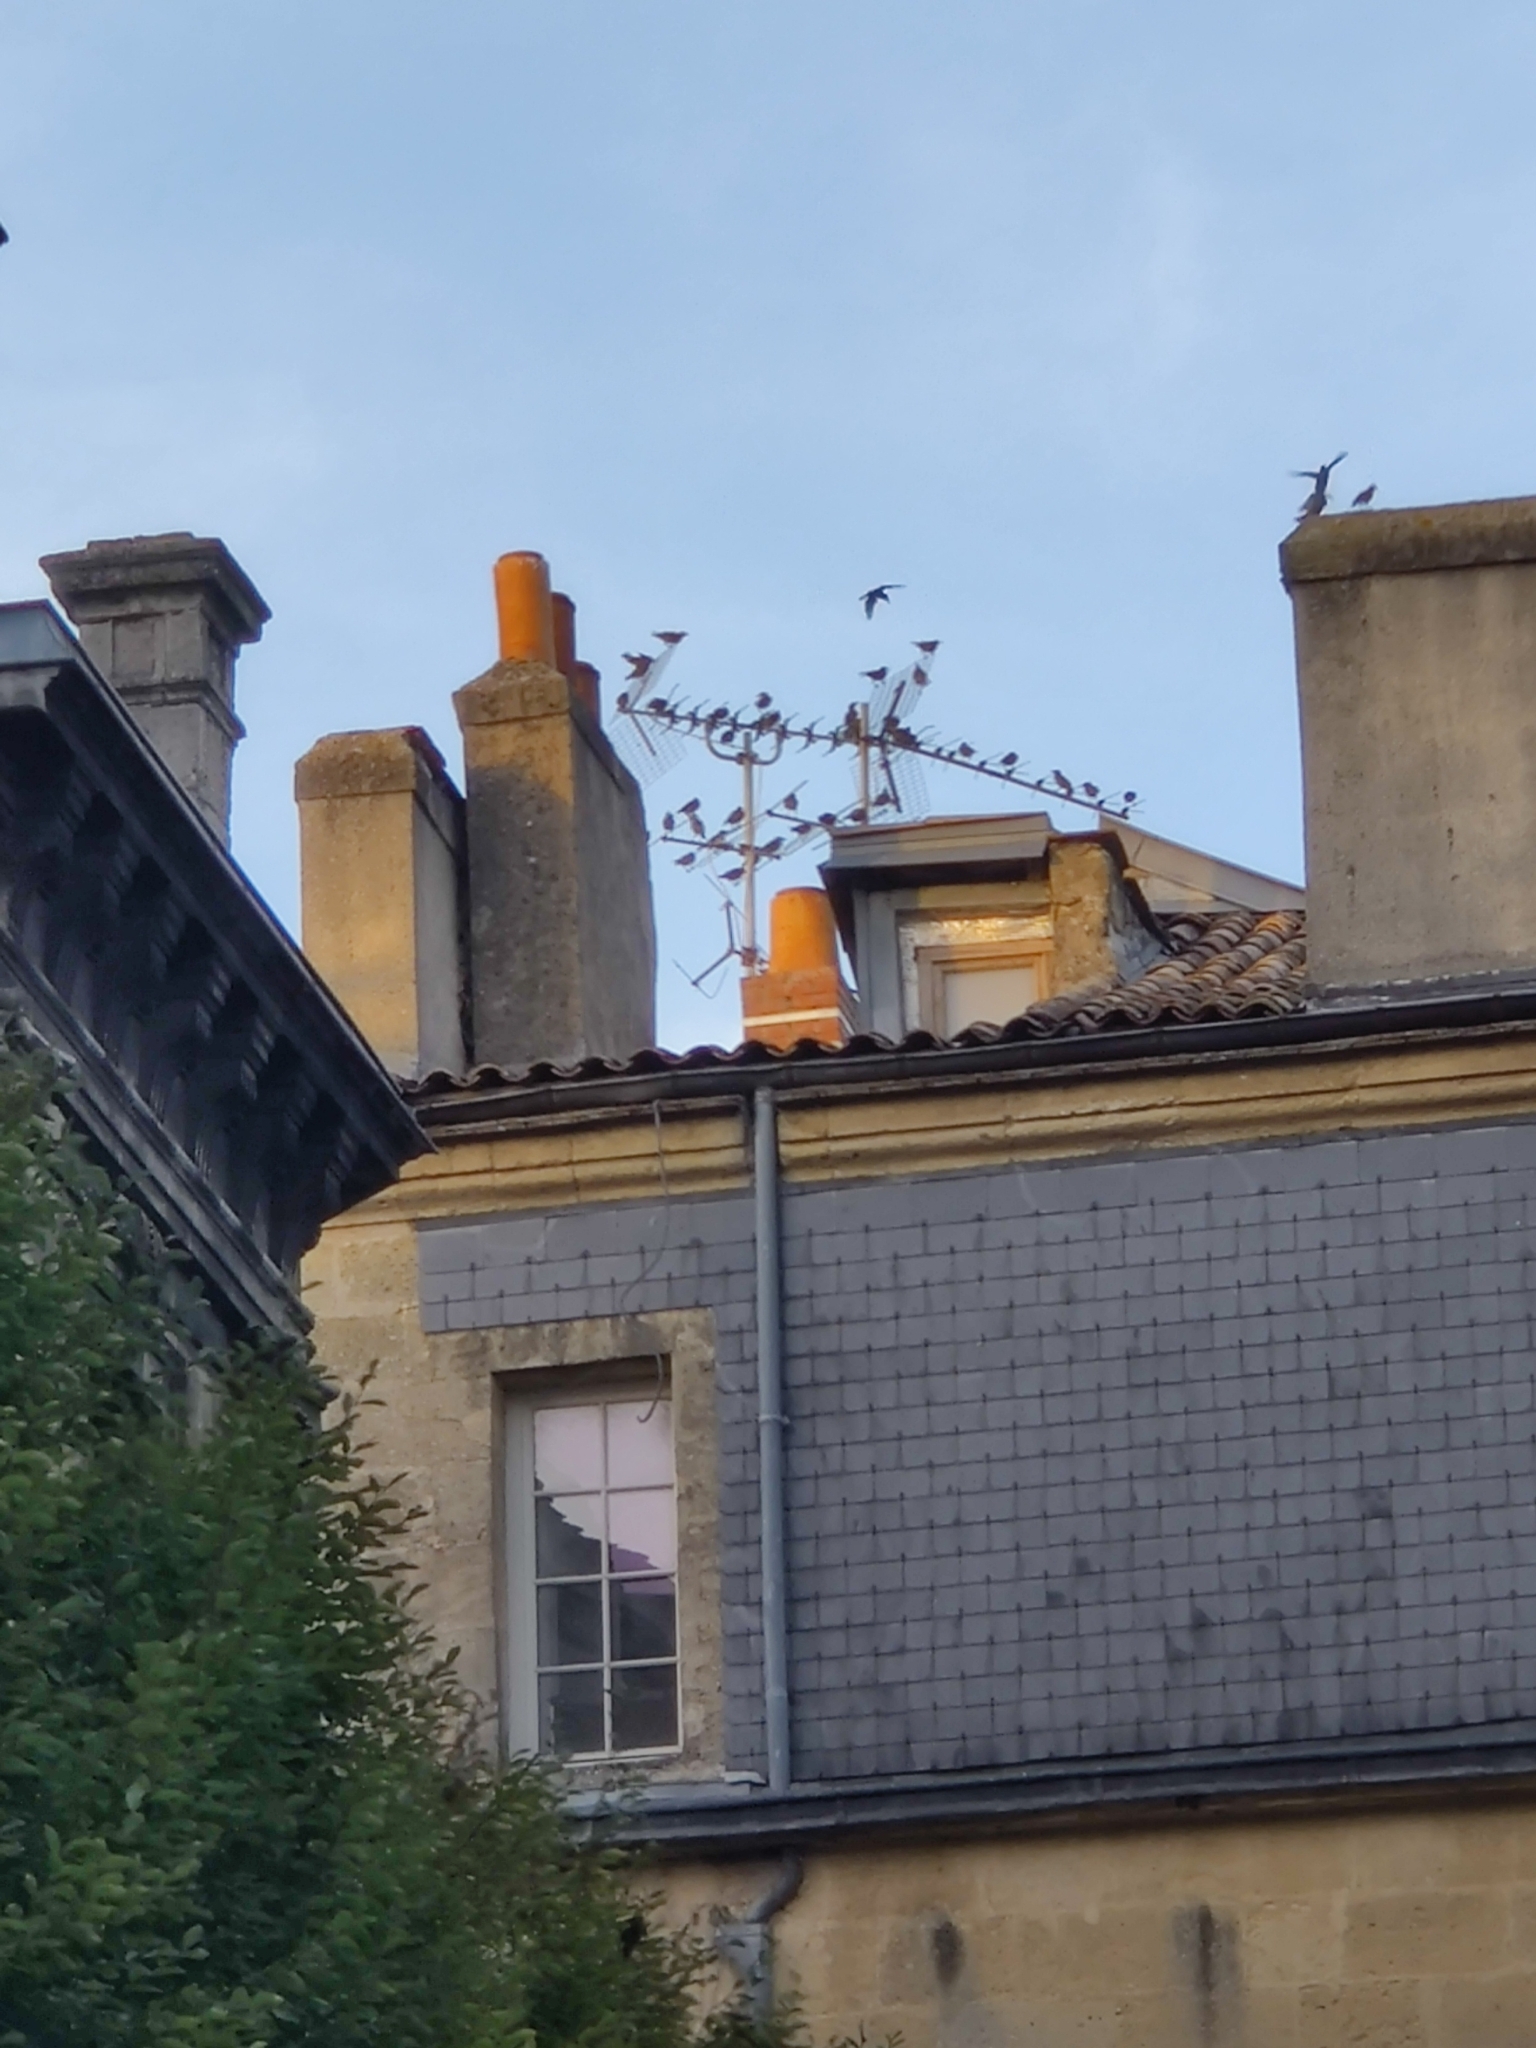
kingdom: Animalia
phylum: Chordata
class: Aves
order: Passeriformes
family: Sturnidae
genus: Sturnus
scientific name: Sturnus vulgaris
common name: Common starling
